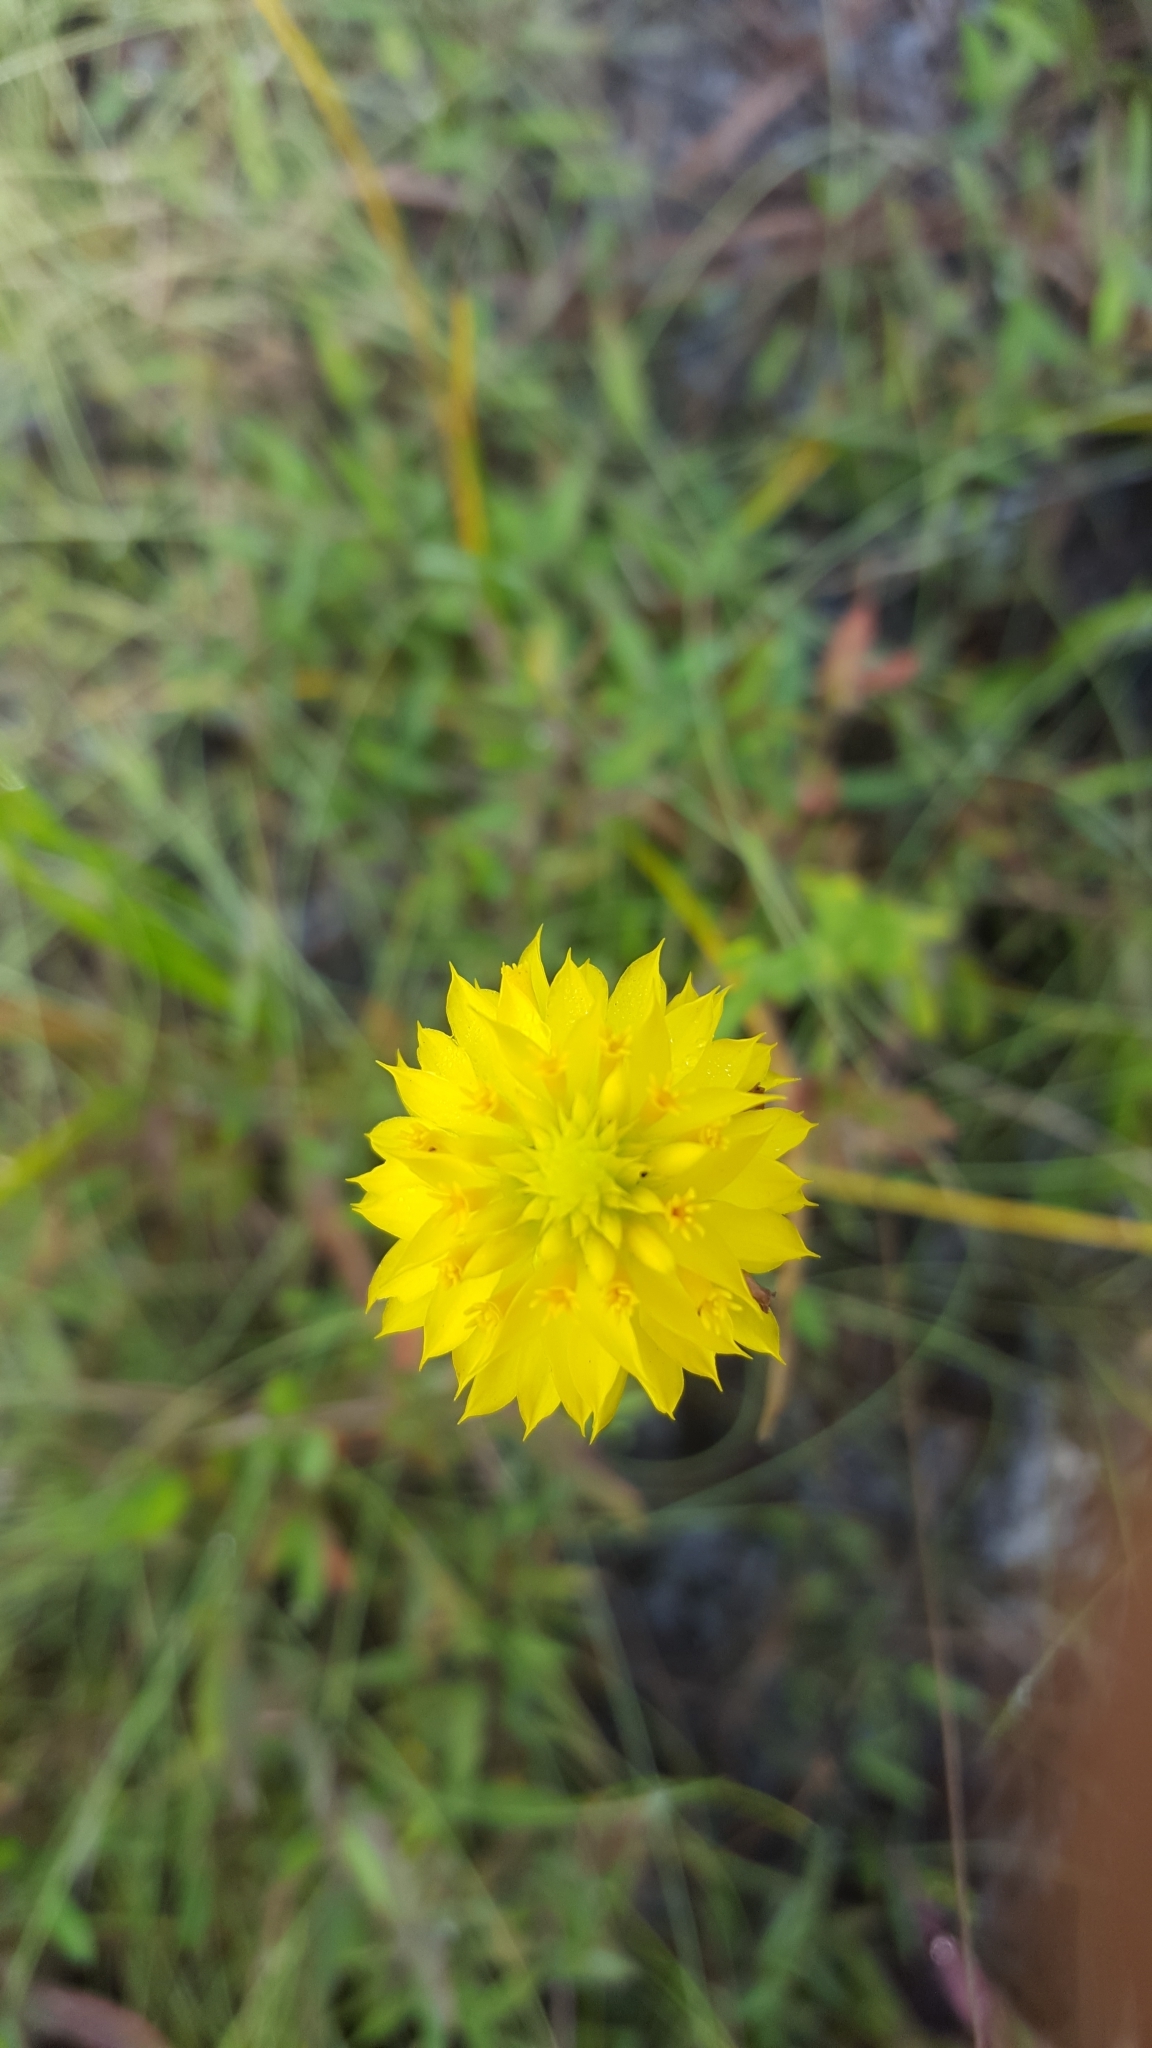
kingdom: Plantae
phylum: Tracheophyta
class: Magnoliopsida
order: Fabales
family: Polygalaceae
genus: Polygala
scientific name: Polygala rugelii
